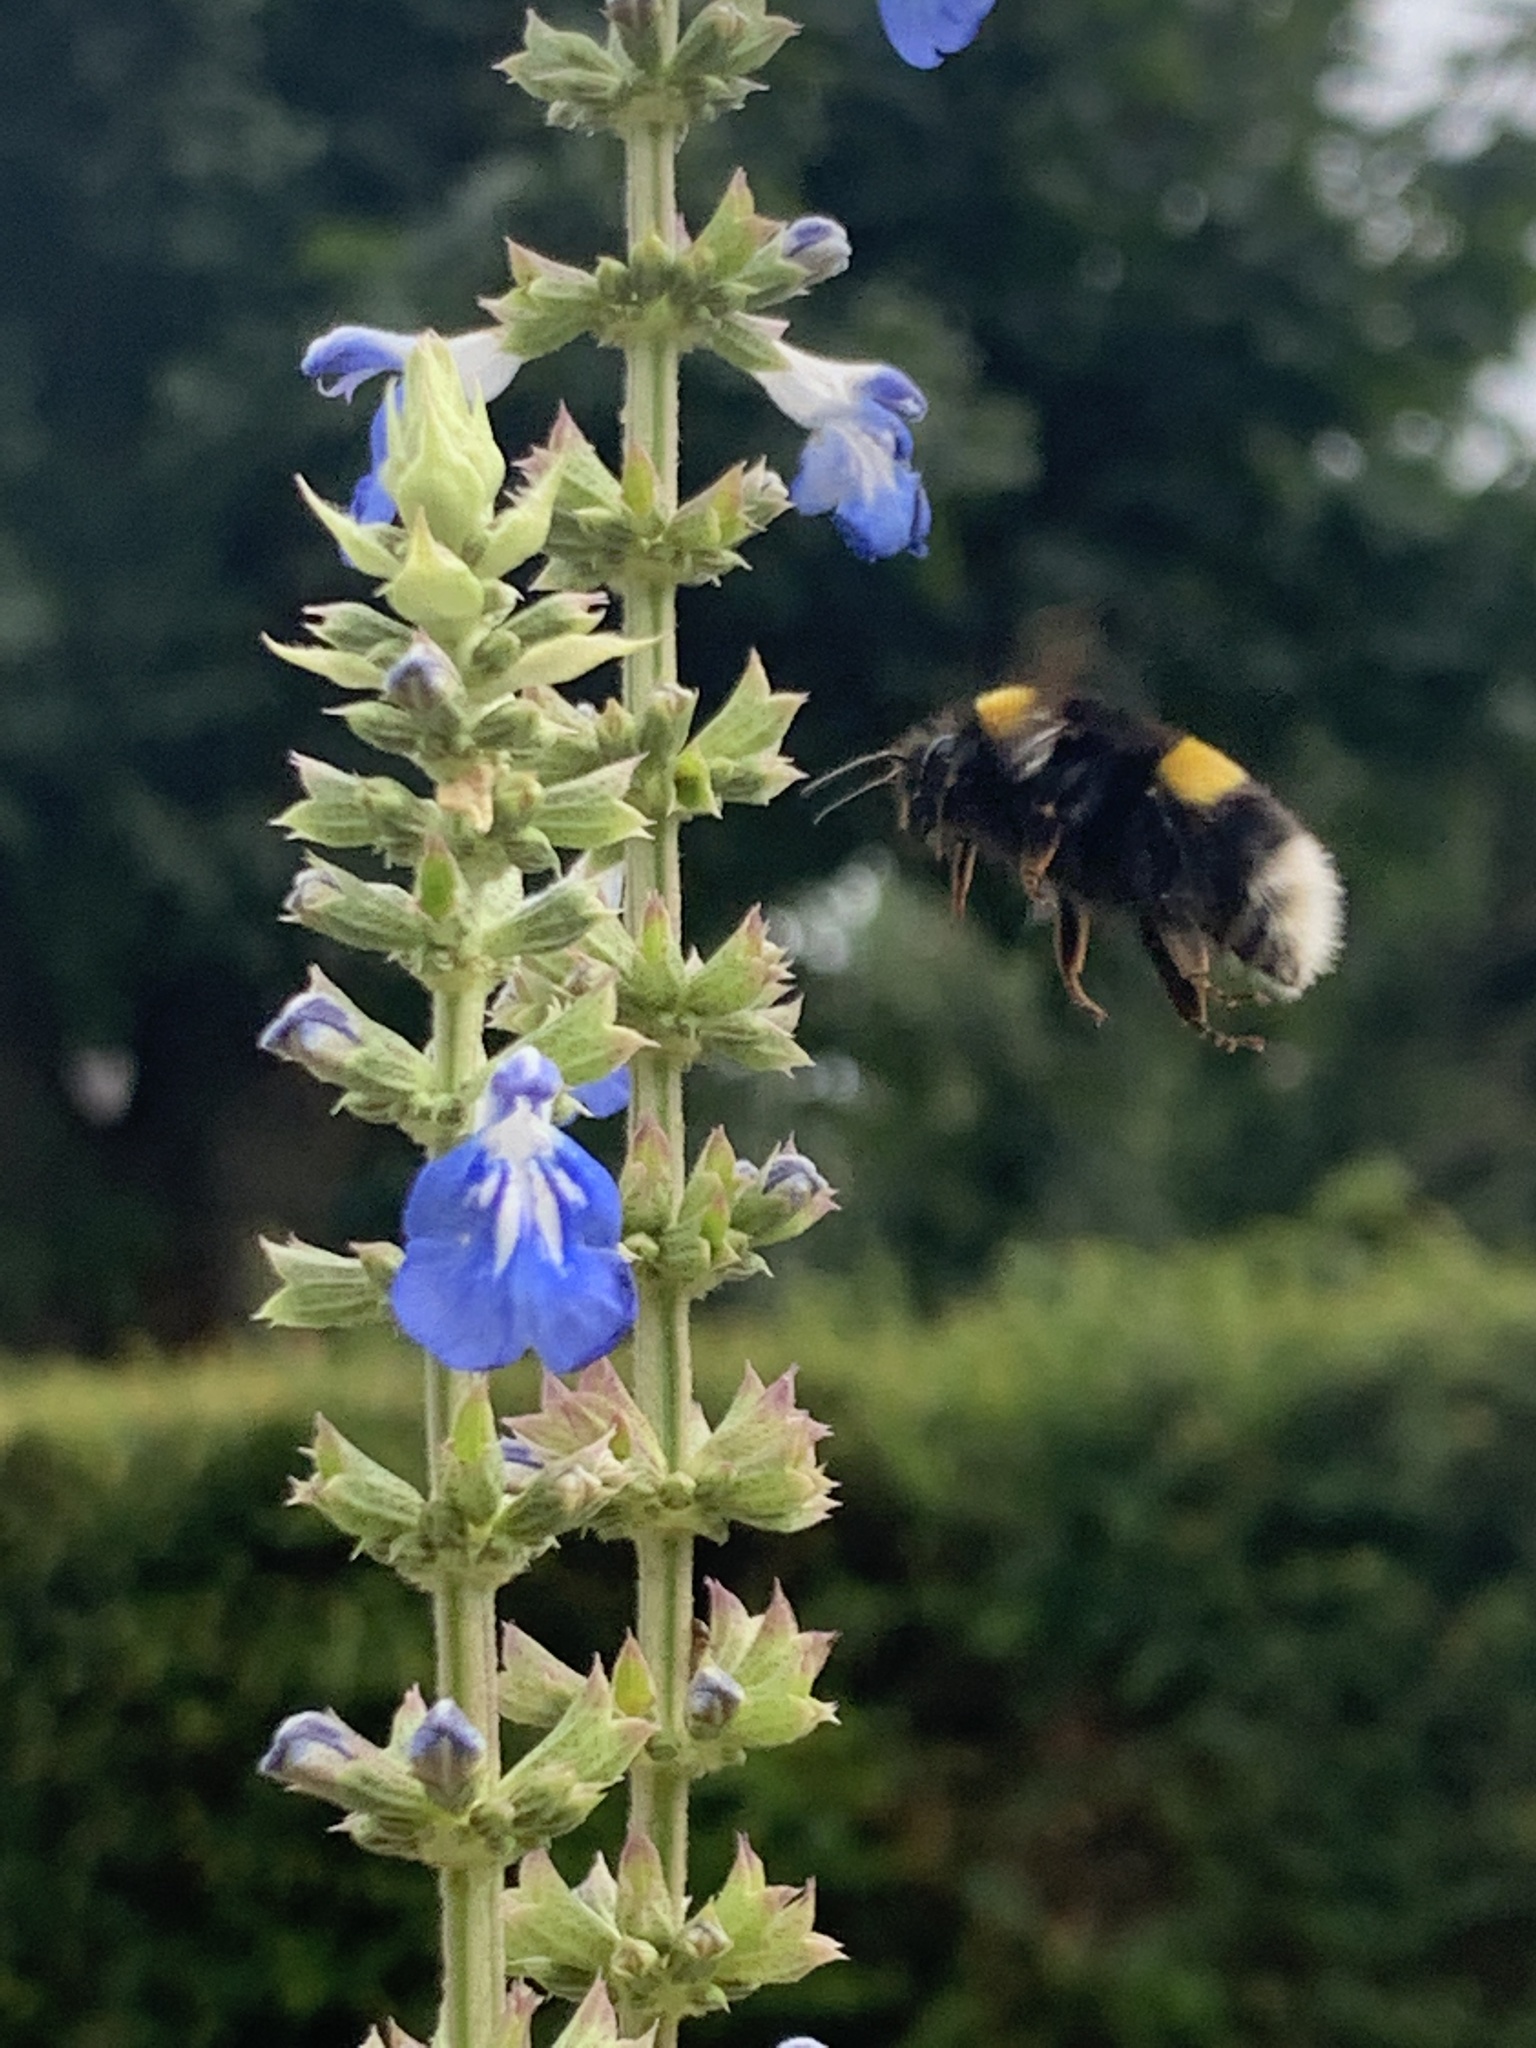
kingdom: Animalia
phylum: Arthropoda
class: Insecta
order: Hymenoptera
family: Apidae
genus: Bombus
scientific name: Bombus terrestris
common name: Buff-tailed bumblebee
